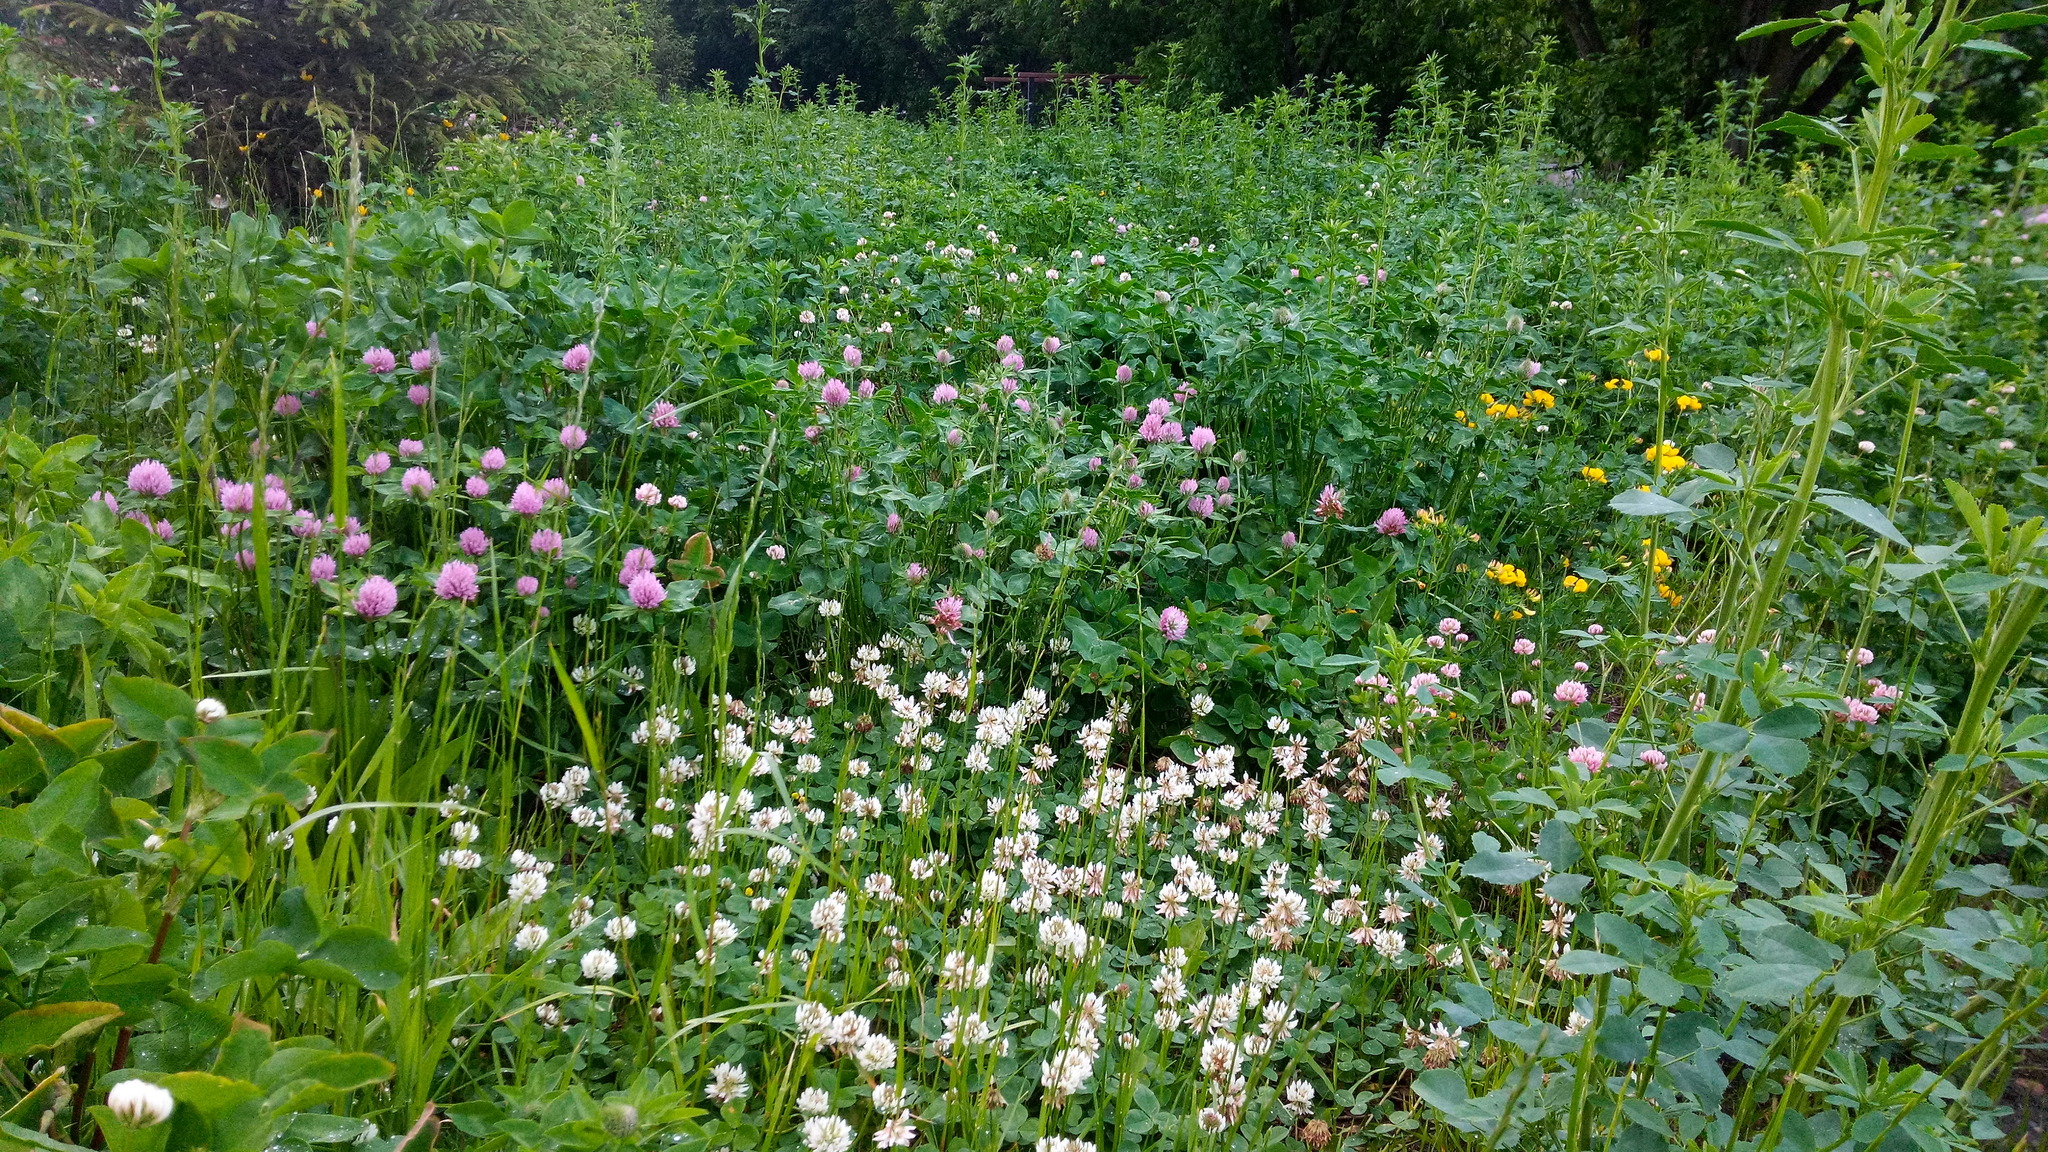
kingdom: Plantae
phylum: Tracheophyta
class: Magnoliopsida
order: Fabales
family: Fabaceae
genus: Trifolium
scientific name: Trifolium repens
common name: White clover
